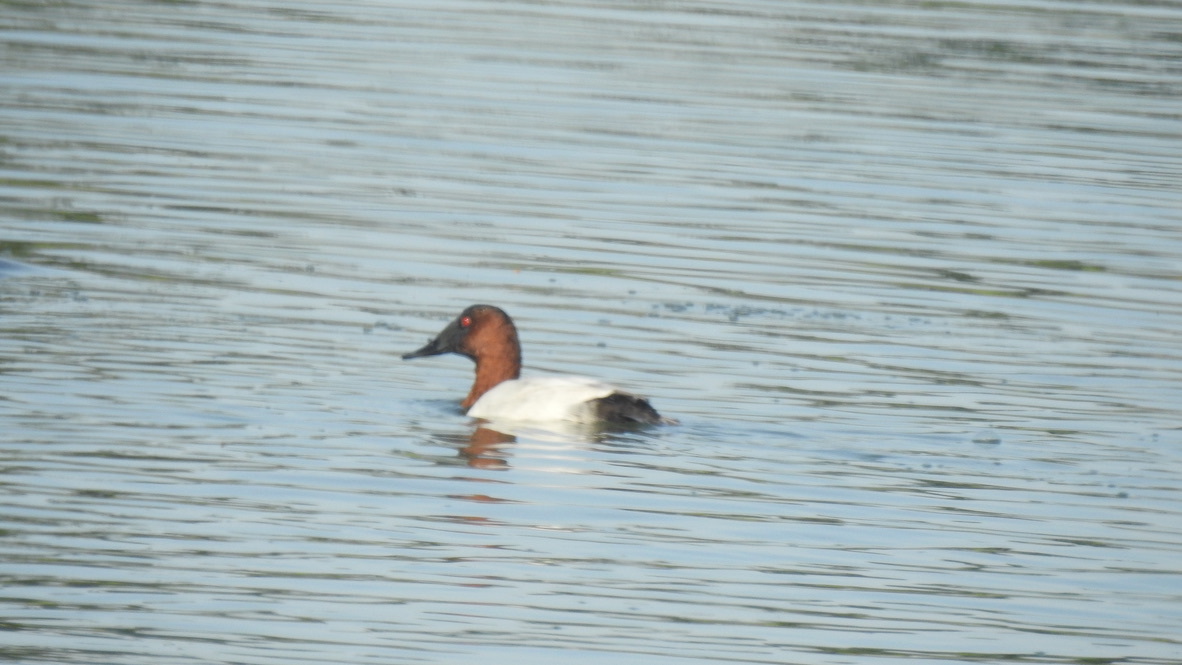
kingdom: Animalia
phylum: Chordata
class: Aves
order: Anseriformes
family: Anatidae
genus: Aythya
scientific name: Aythya valisineria
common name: Canvasback
